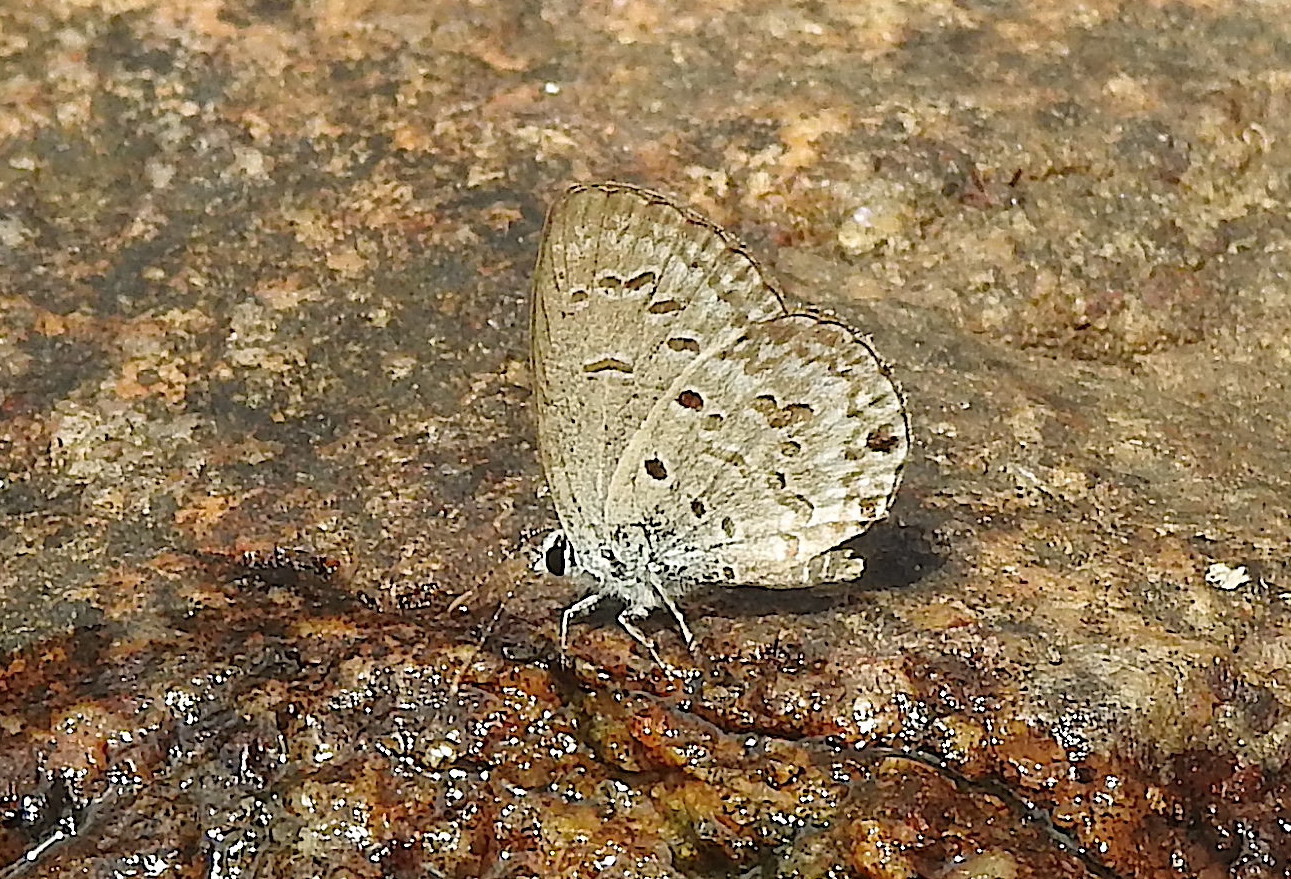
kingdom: Animalia
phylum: Arthropoda
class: Insecta
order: Lepidoptera
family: Lycaenidae
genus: Chilades
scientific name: Chilades laius
